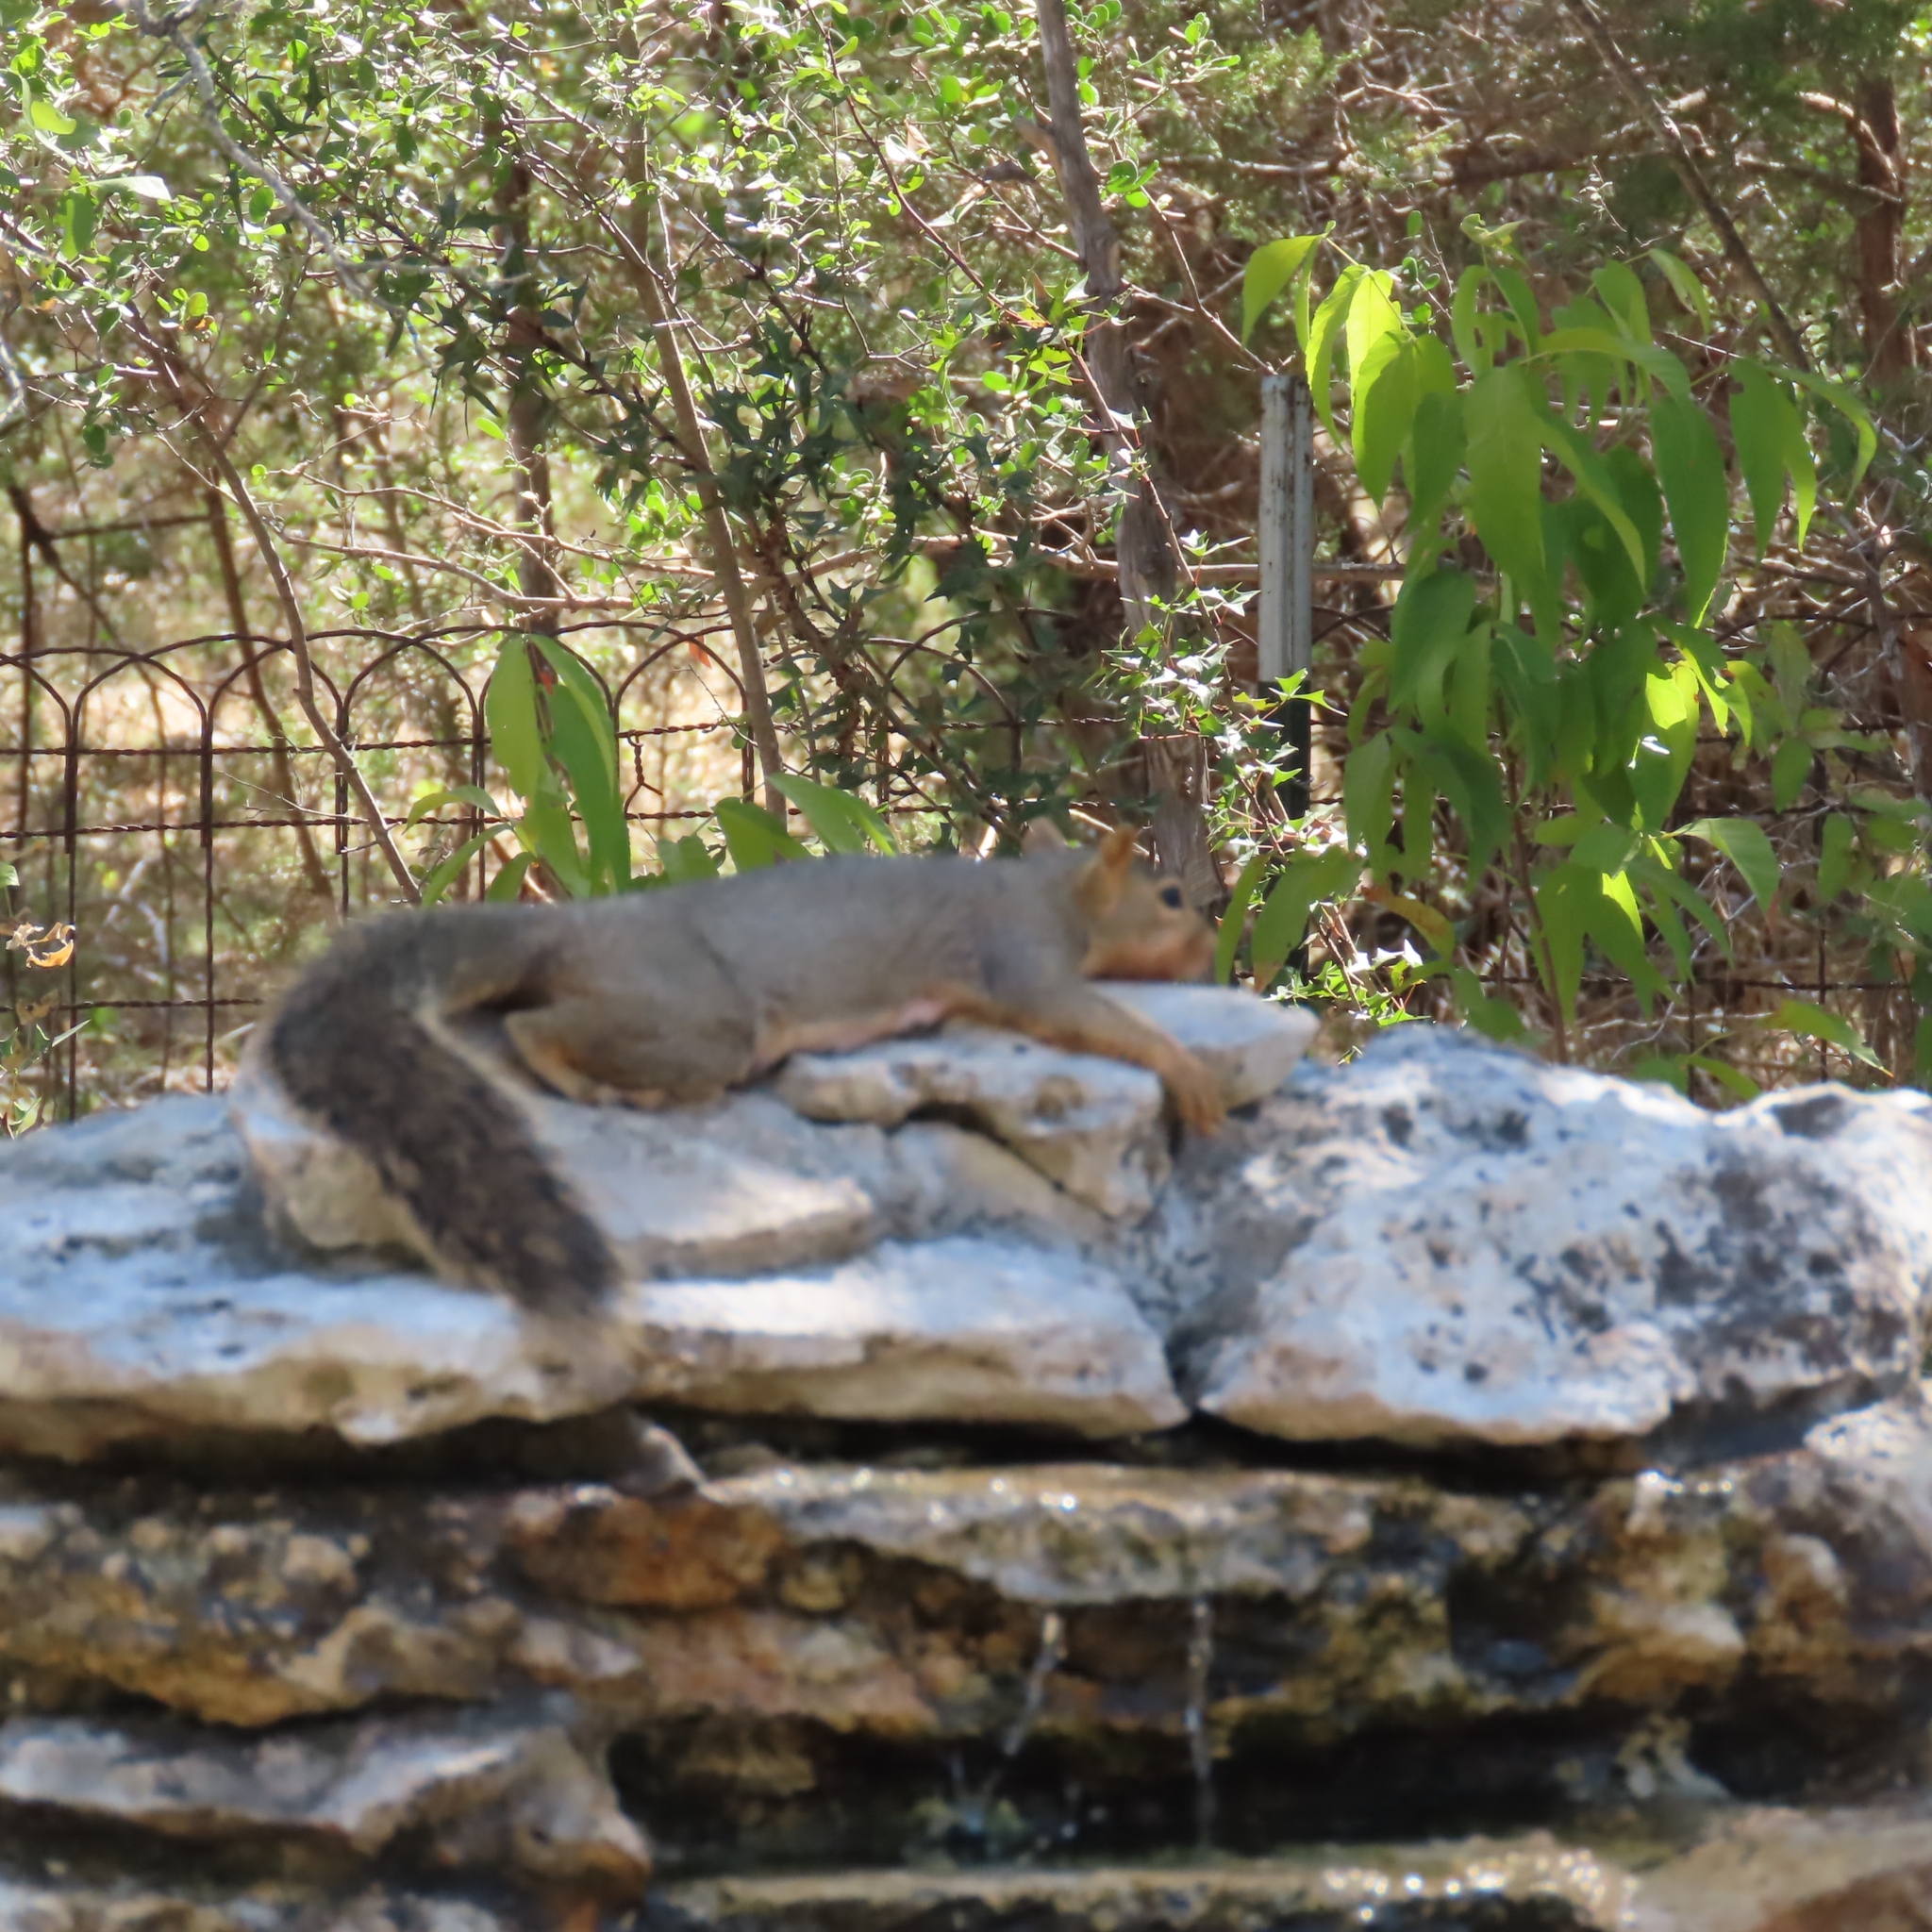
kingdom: Animalia
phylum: Chordata
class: Mammalia
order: Rodentia
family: Sciuridae
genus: Sciurus
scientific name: Sciurus niger
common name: Fox squirrel
